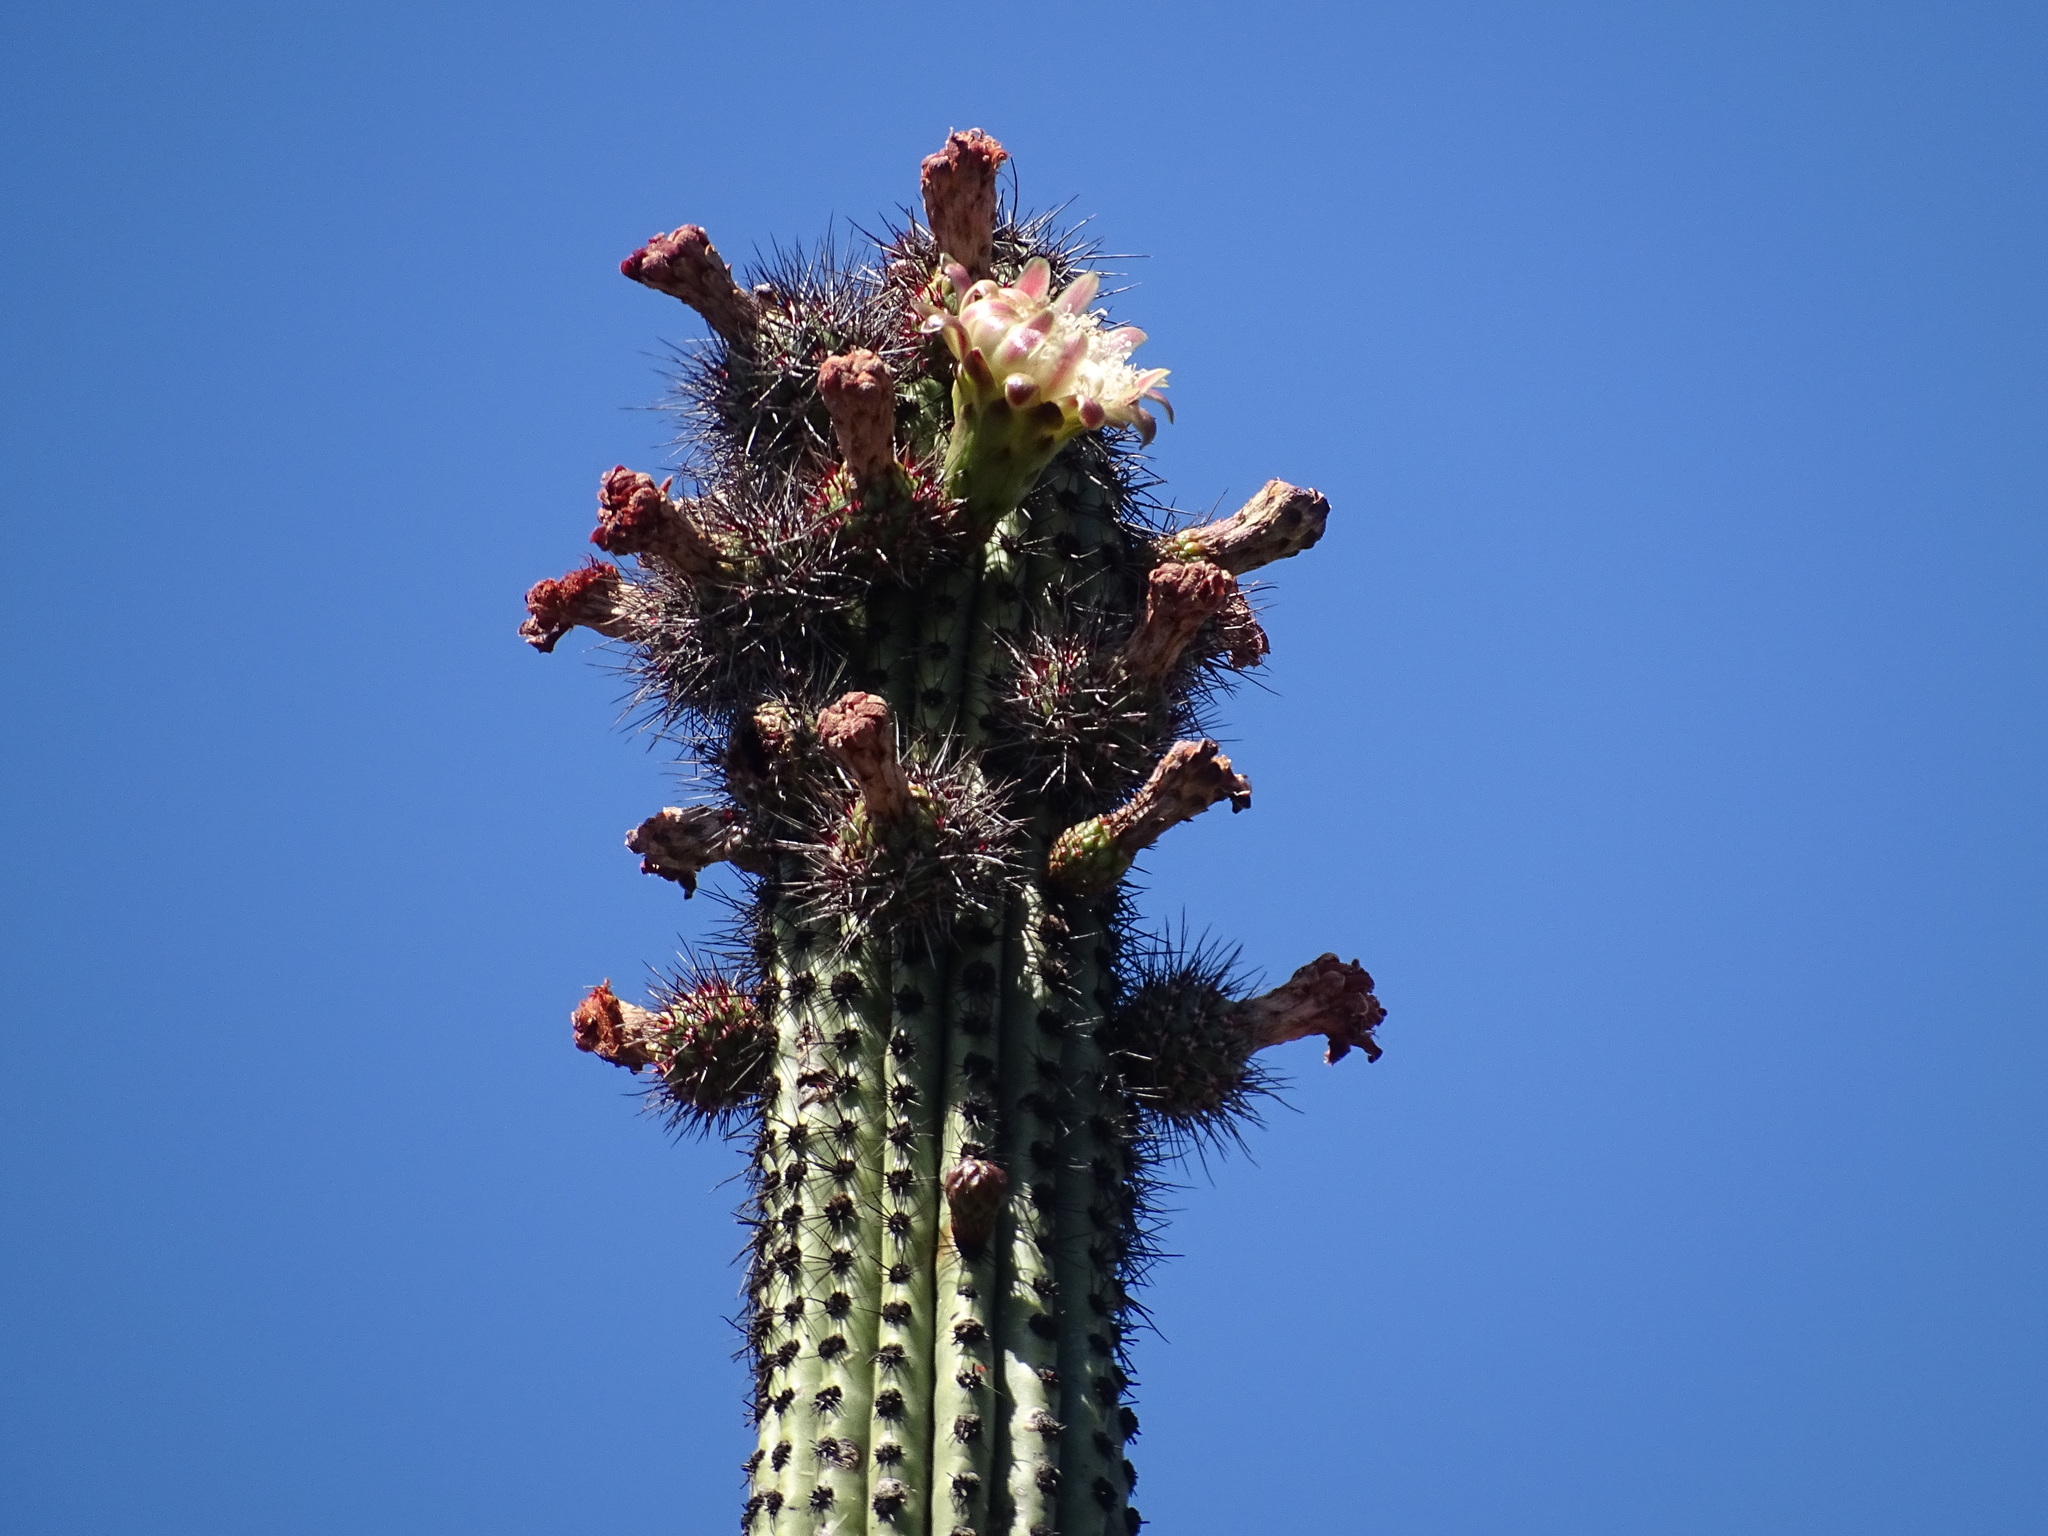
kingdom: Plantae
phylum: Tracheophyta
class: Magnoliopsida
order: Caryophyllales
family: Cactaceae
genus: Stenocereus
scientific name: Stenocereus thurberi
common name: Organ pipe cactus
